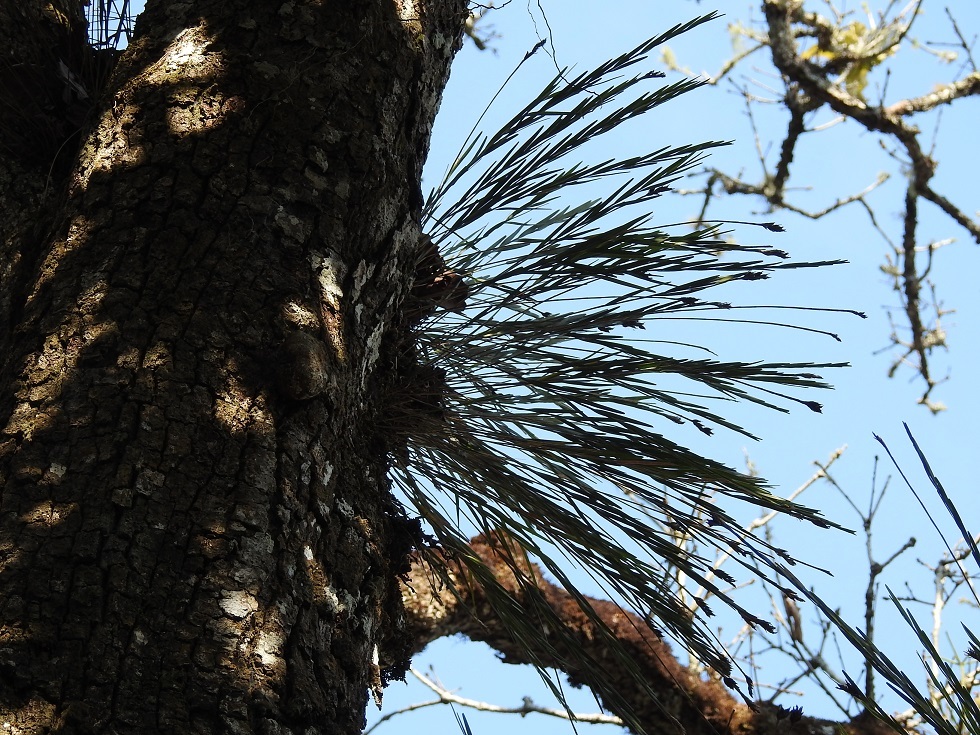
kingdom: Plantae
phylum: Tracheophyta
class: Liliopsida
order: Asparagales
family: Orchidaceae
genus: Isochilus
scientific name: Isochilus carnosiflorus
